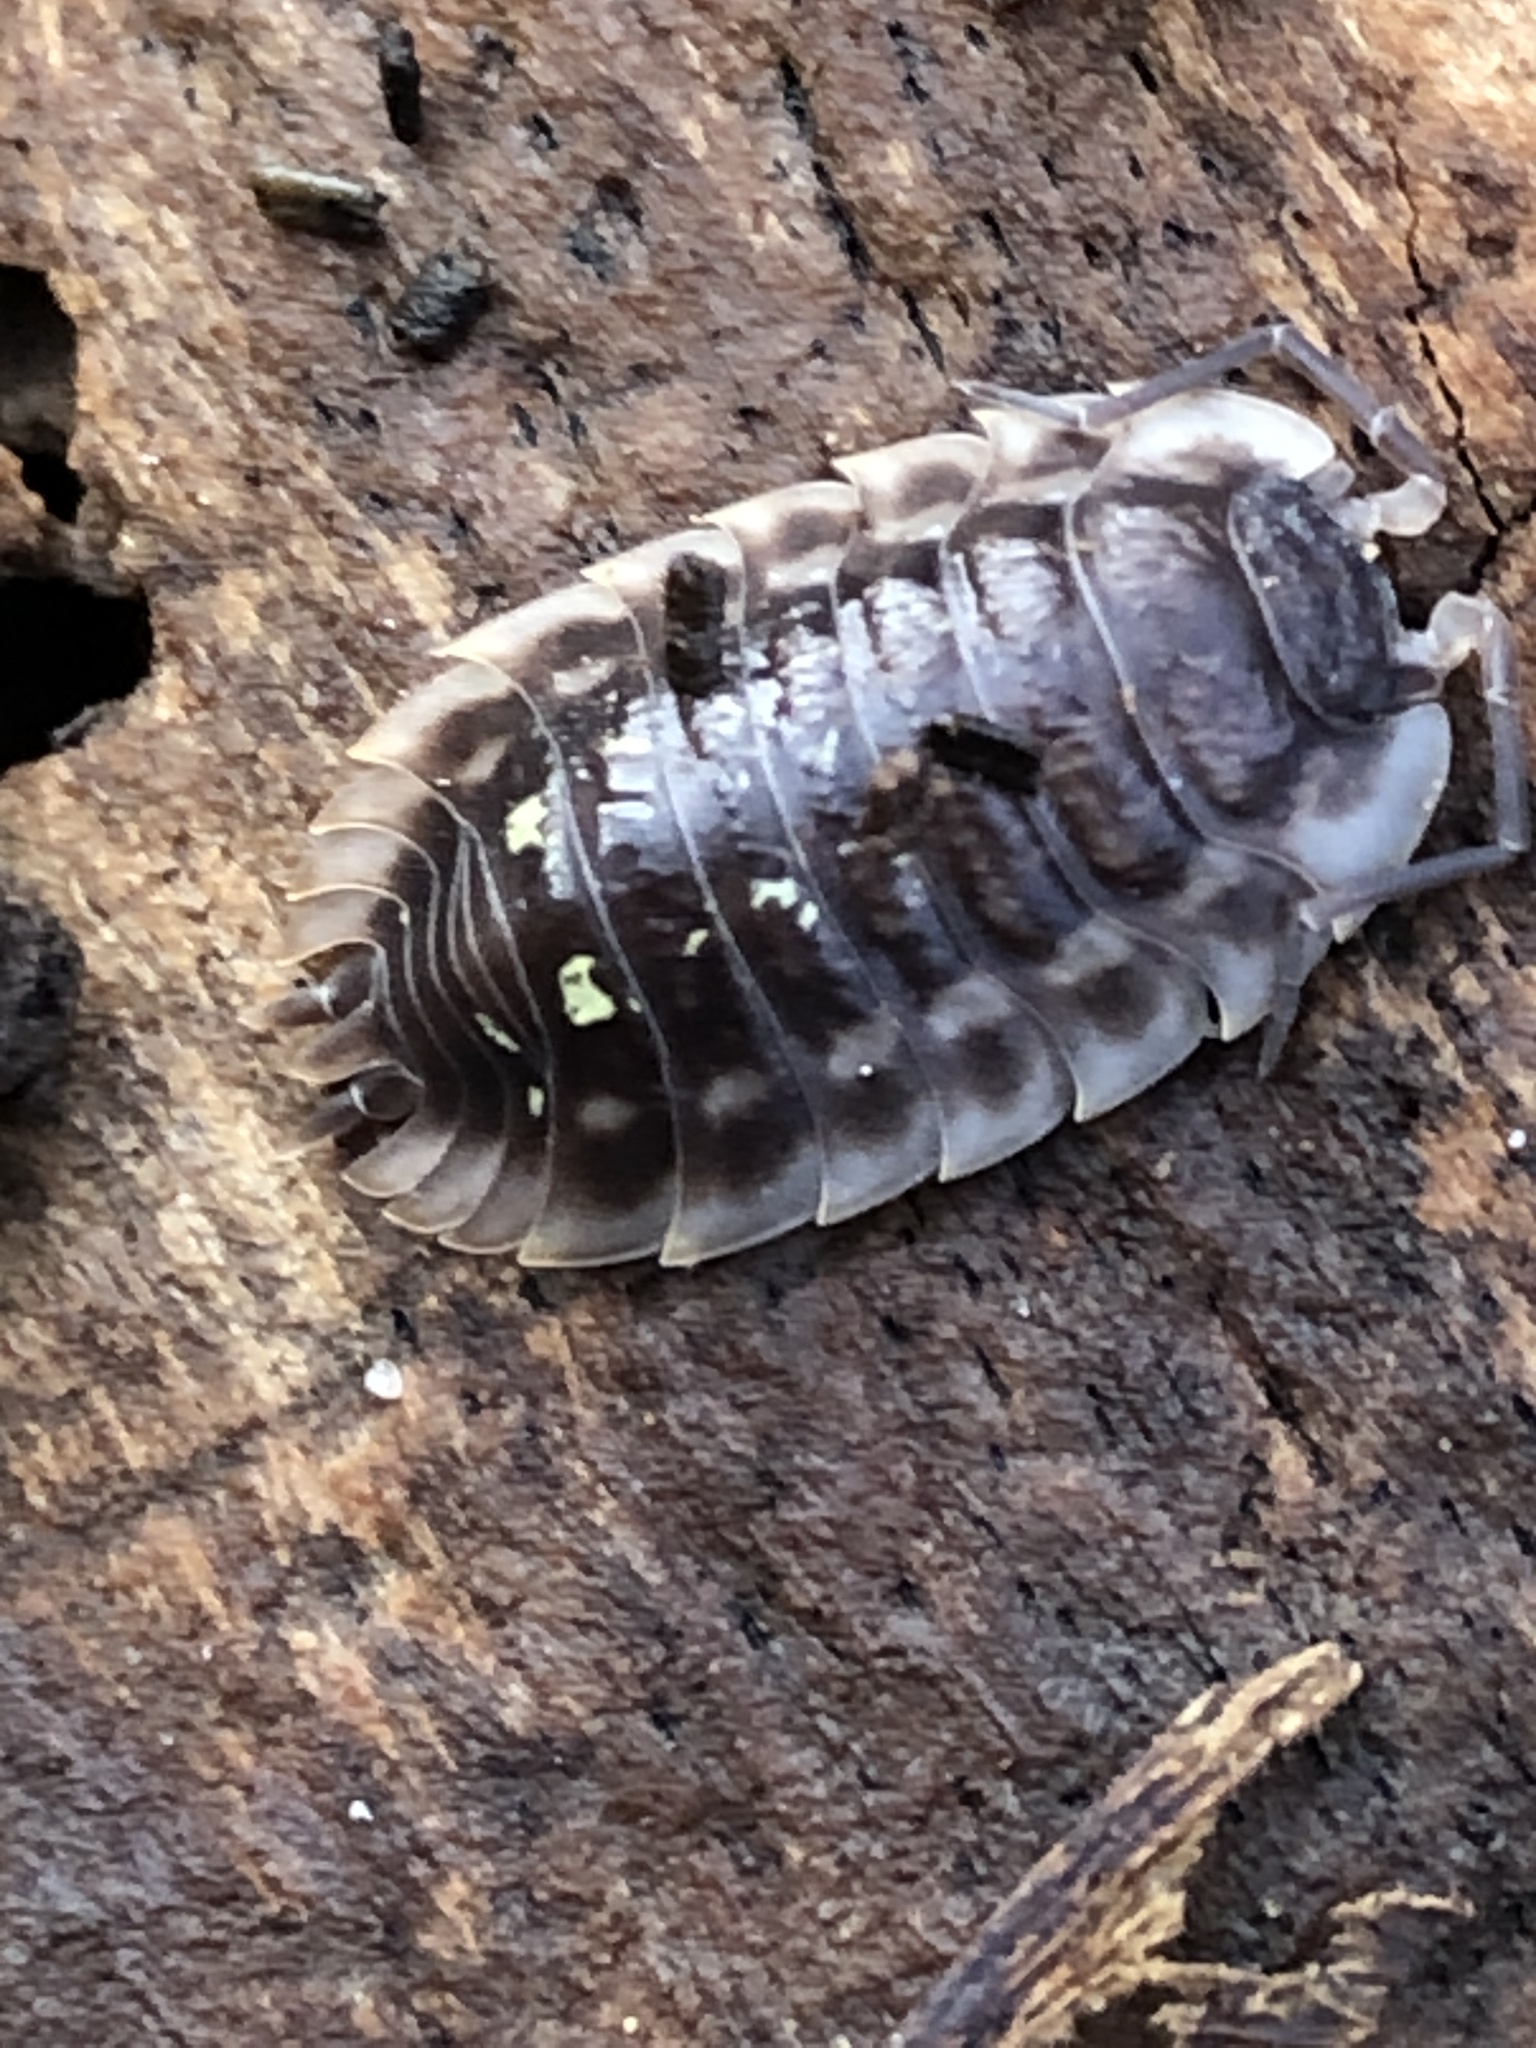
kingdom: Animalia
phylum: Arthropoda
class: Malacostraca
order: Isopoda
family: Oniscidae
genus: Oniscus
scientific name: Oniscus asellus
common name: Common shiny woodlouse
